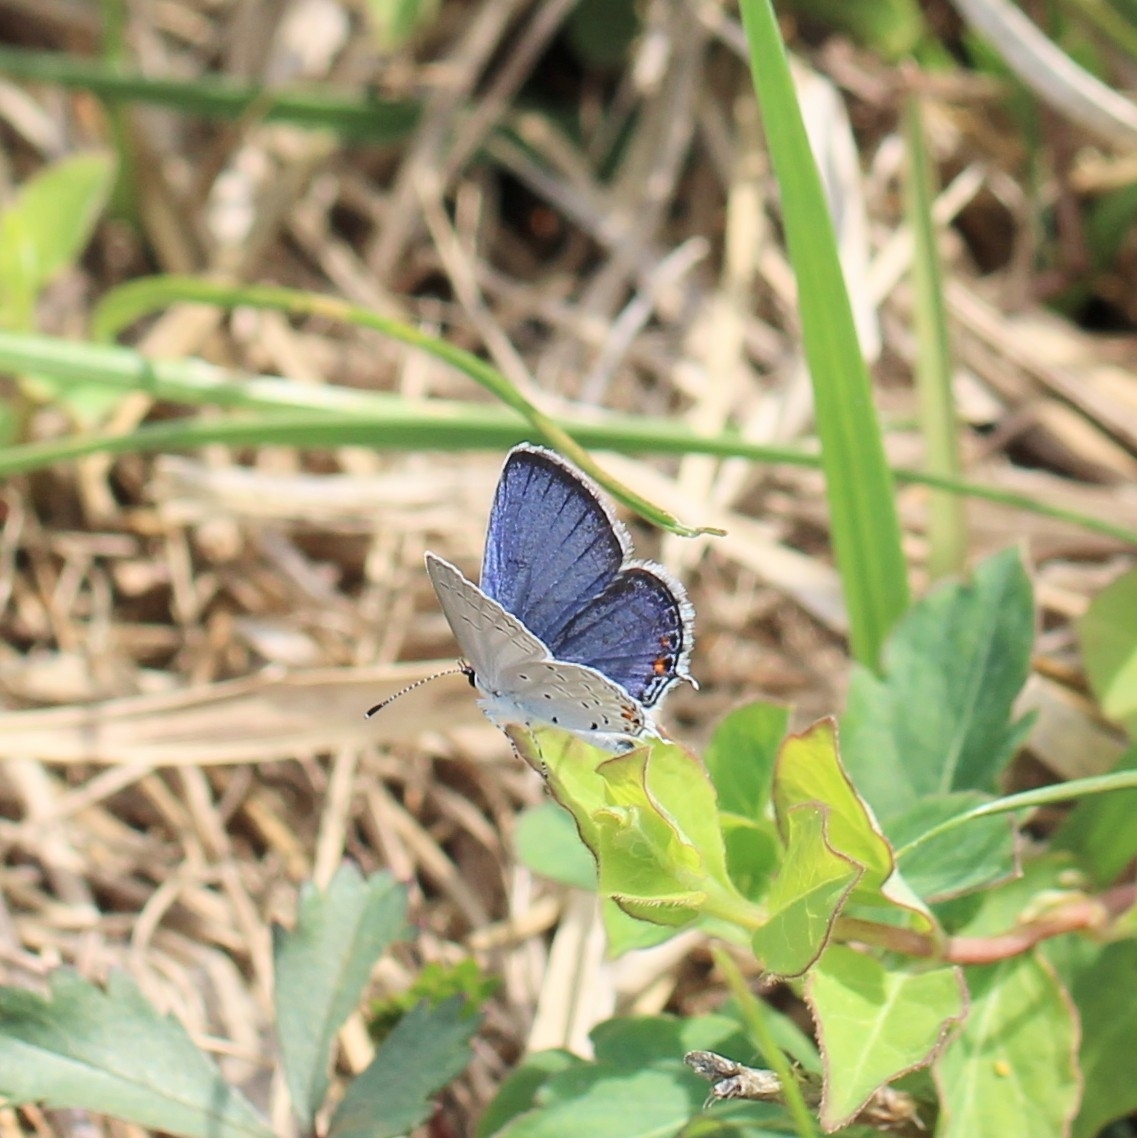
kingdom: Animalia
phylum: Arthropoda
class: Insecta
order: Lepidoptera
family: Lycaenidae
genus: Elkalyce
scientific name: Elkalyce comyntas
